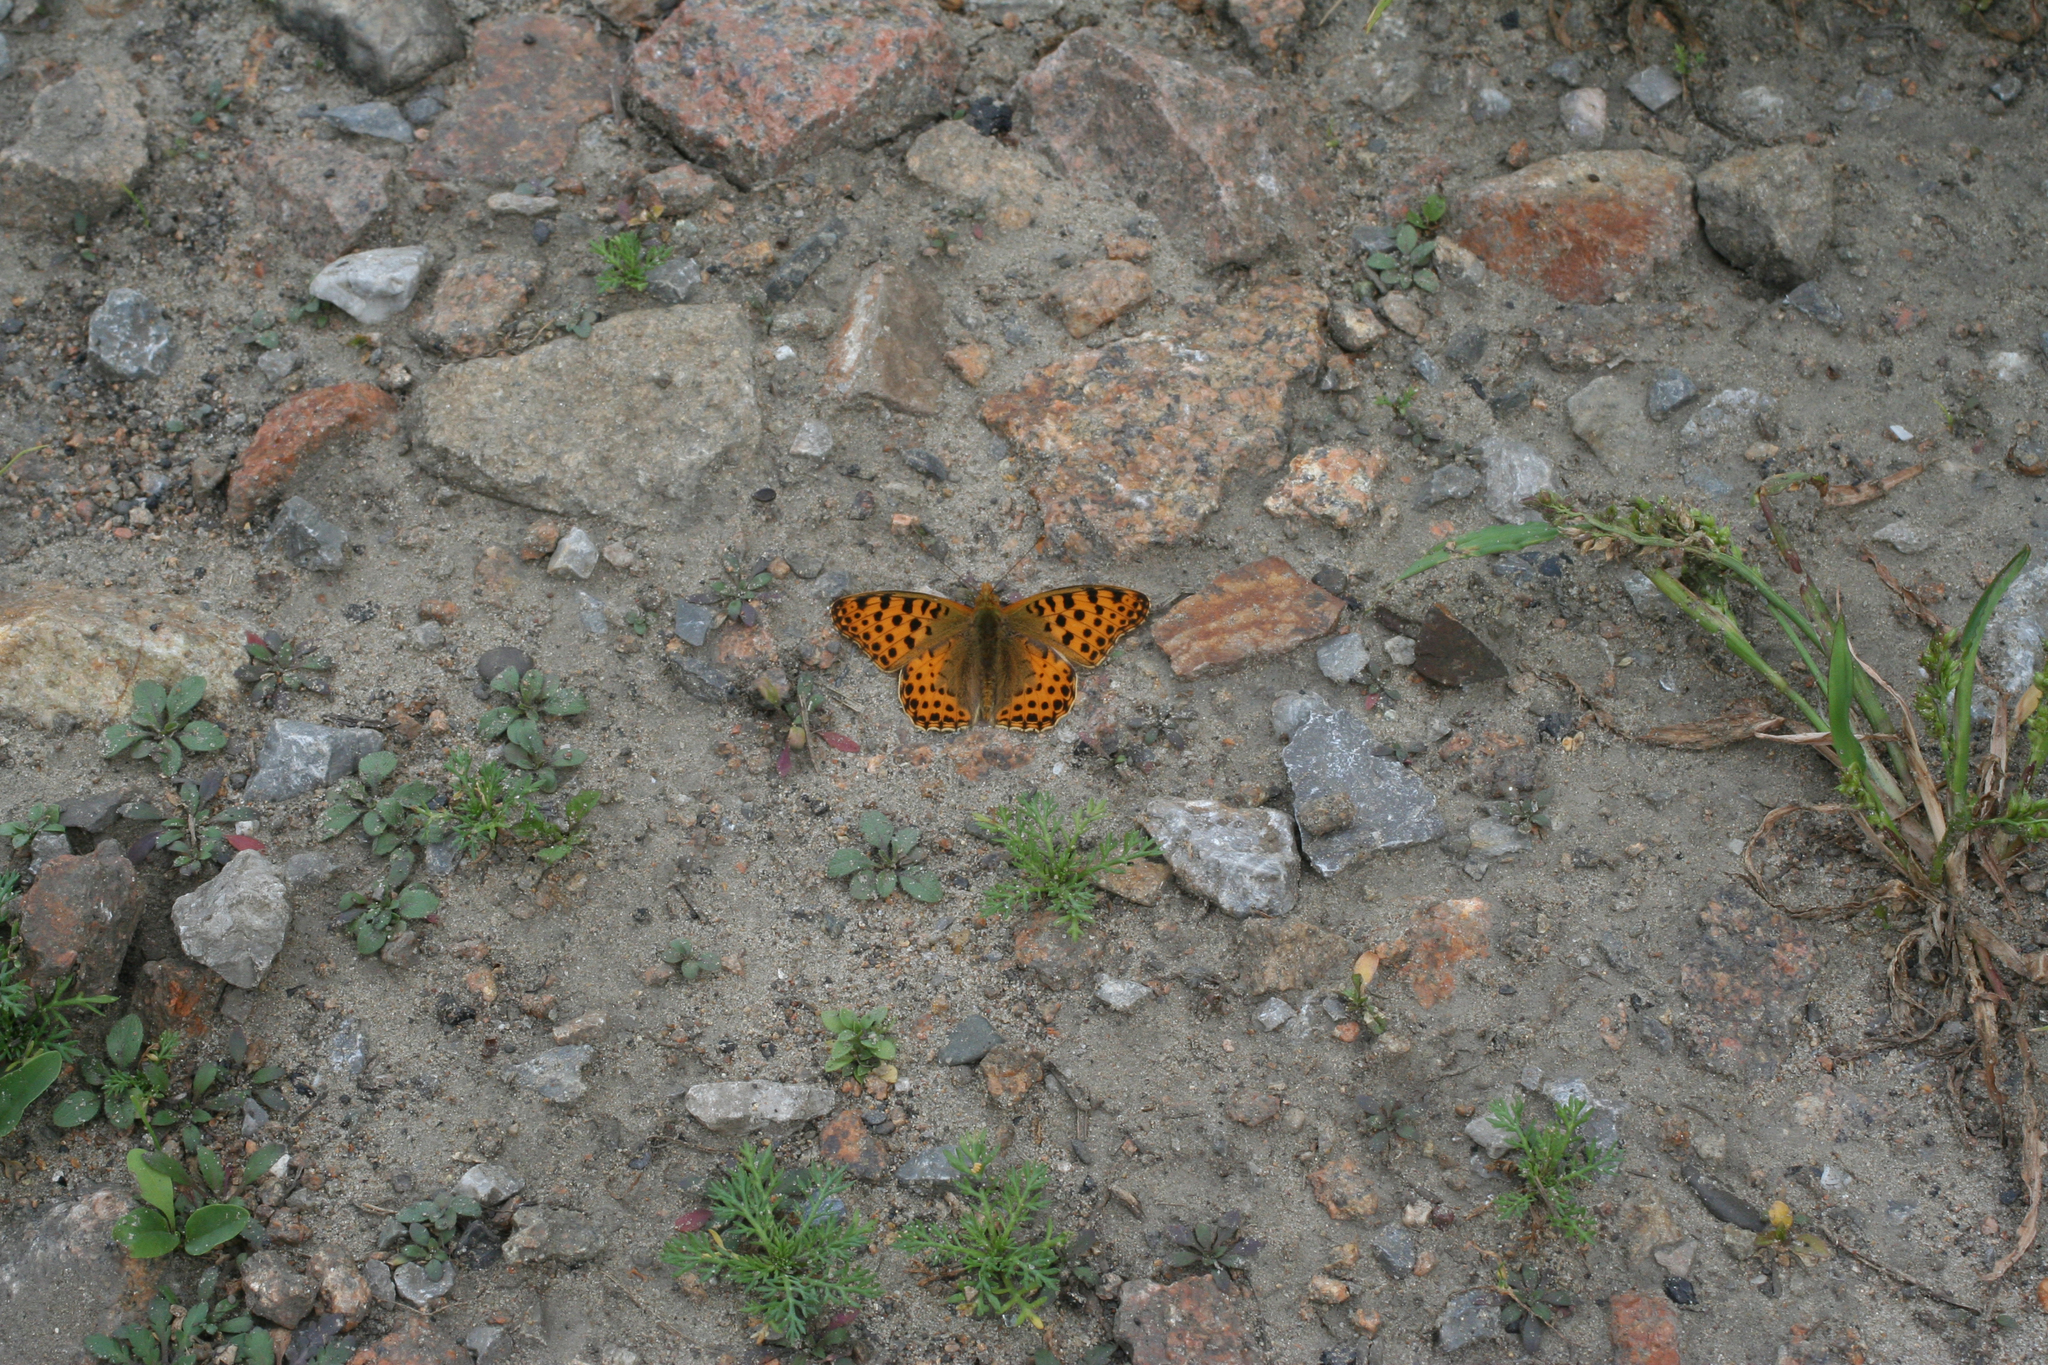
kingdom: Animalia
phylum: Arthropoda
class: Insecta
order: Lepidoptera
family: Nymphalidae
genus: Issoria
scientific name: Issoria lathonia
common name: Queen of spain fritillary
